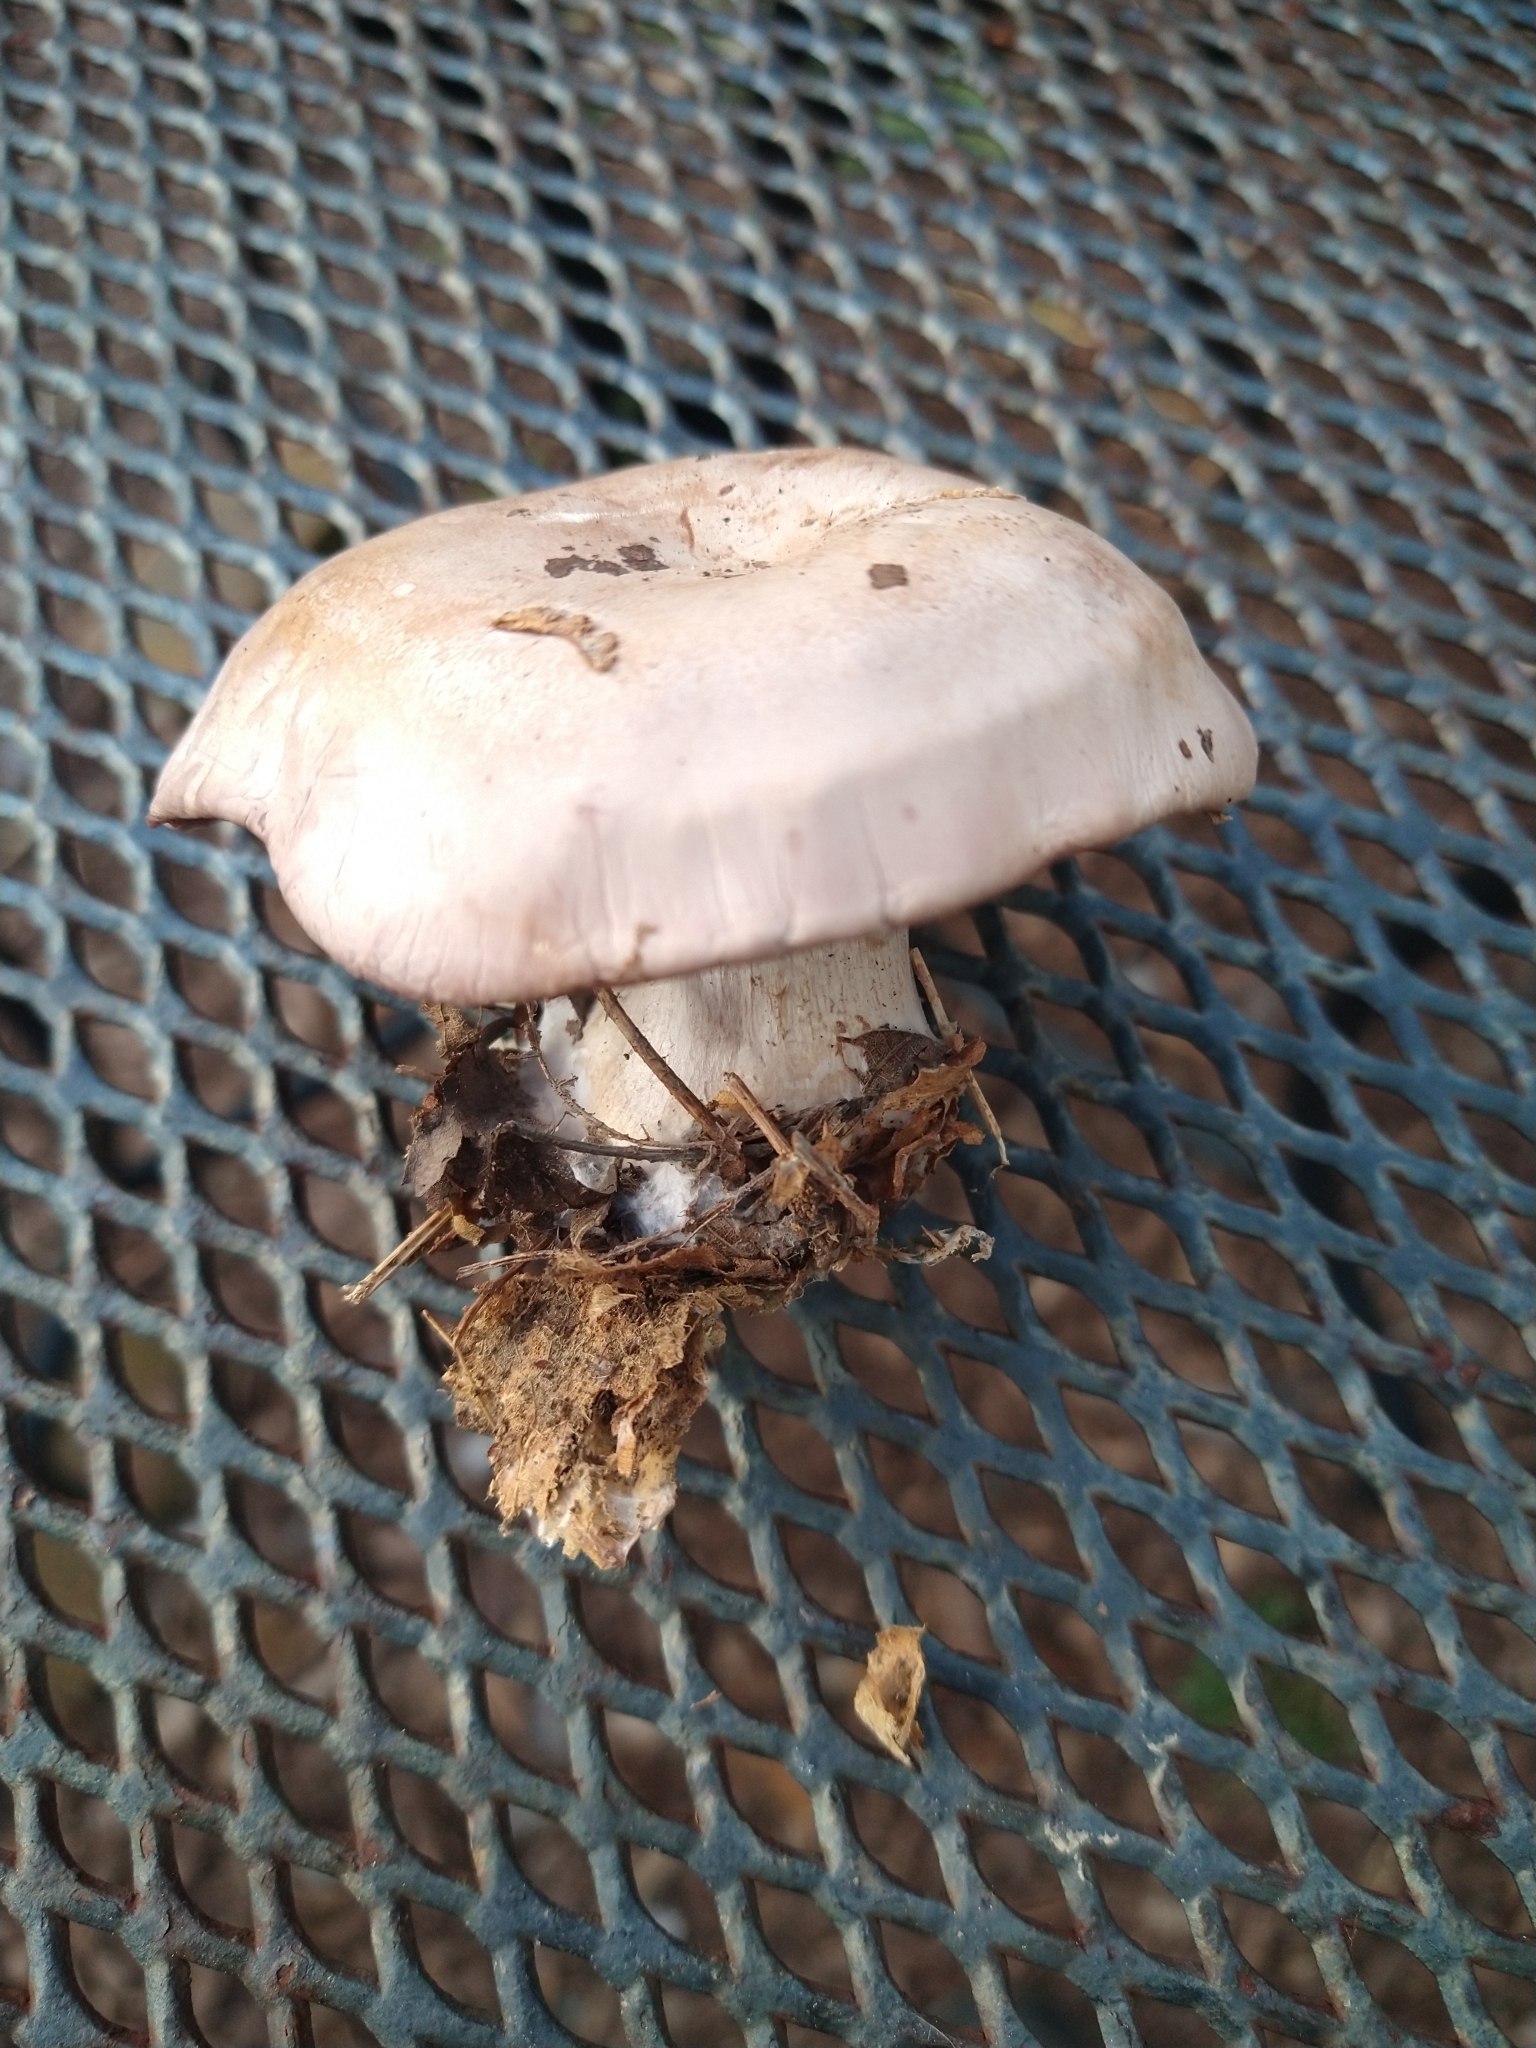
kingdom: Fungi
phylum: Basidiomycota
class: Agaricomycetes
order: Agaricales
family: Tricholomataceae
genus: Collybia
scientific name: Collybia
